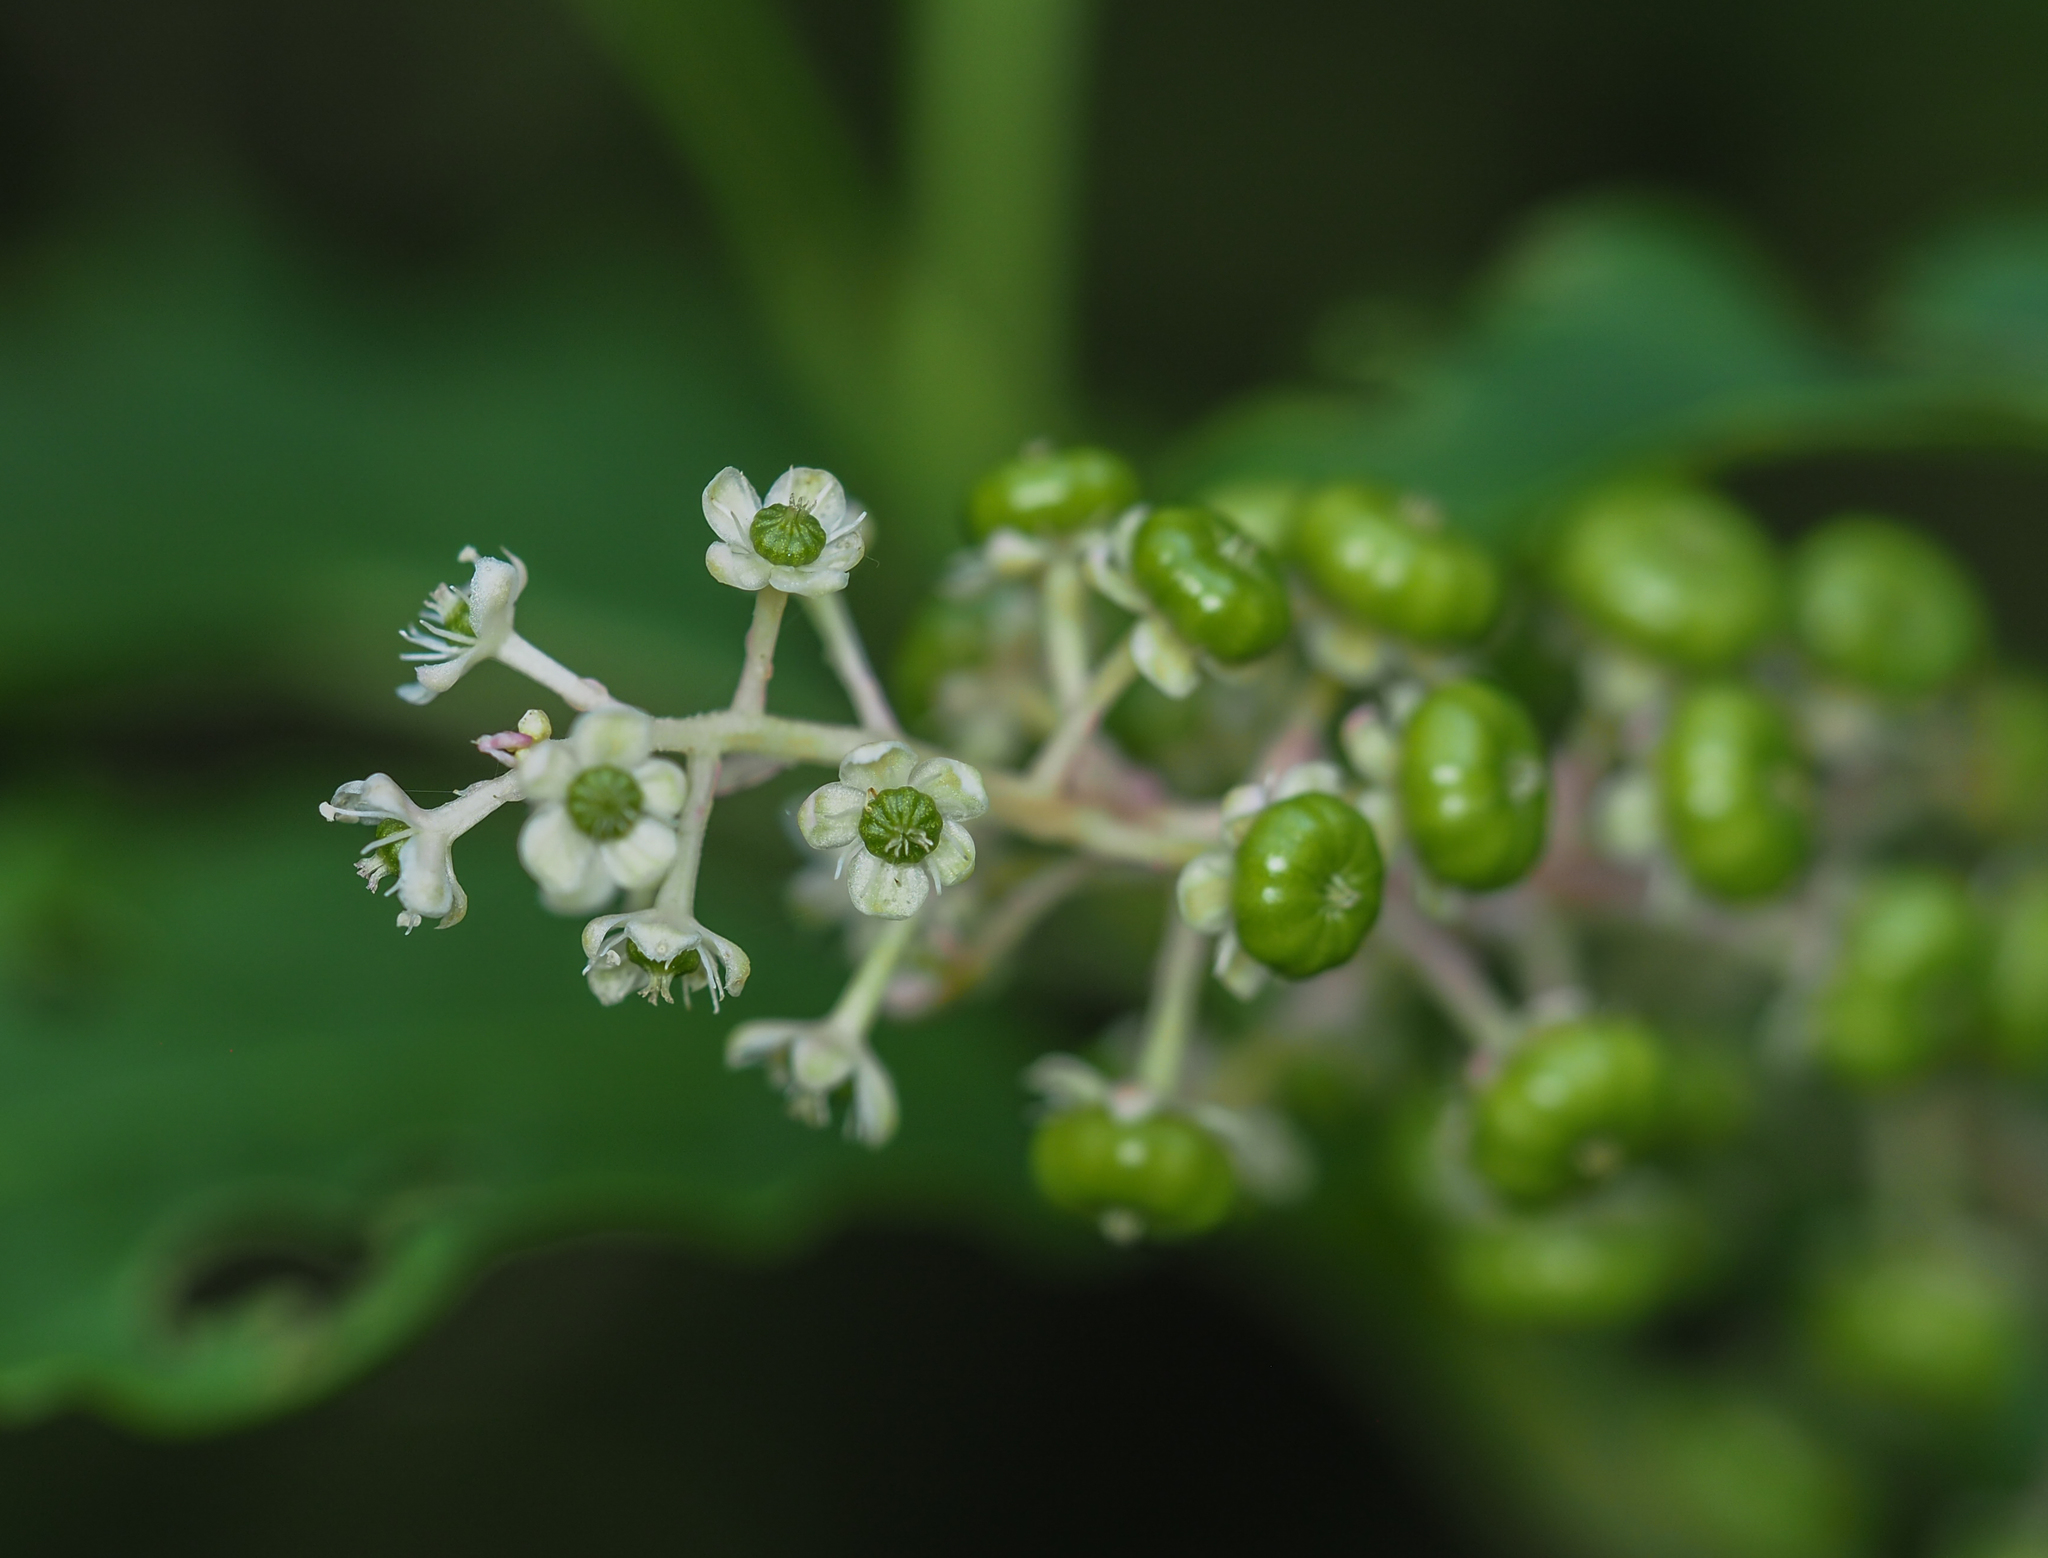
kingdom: Plantae
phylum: Tracheophyta
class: Magnoliopsida
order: Caryophyllales
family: Phytolaccaceae
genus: Phytolacca
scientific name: Phytolacca americana
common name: American pokeweed
